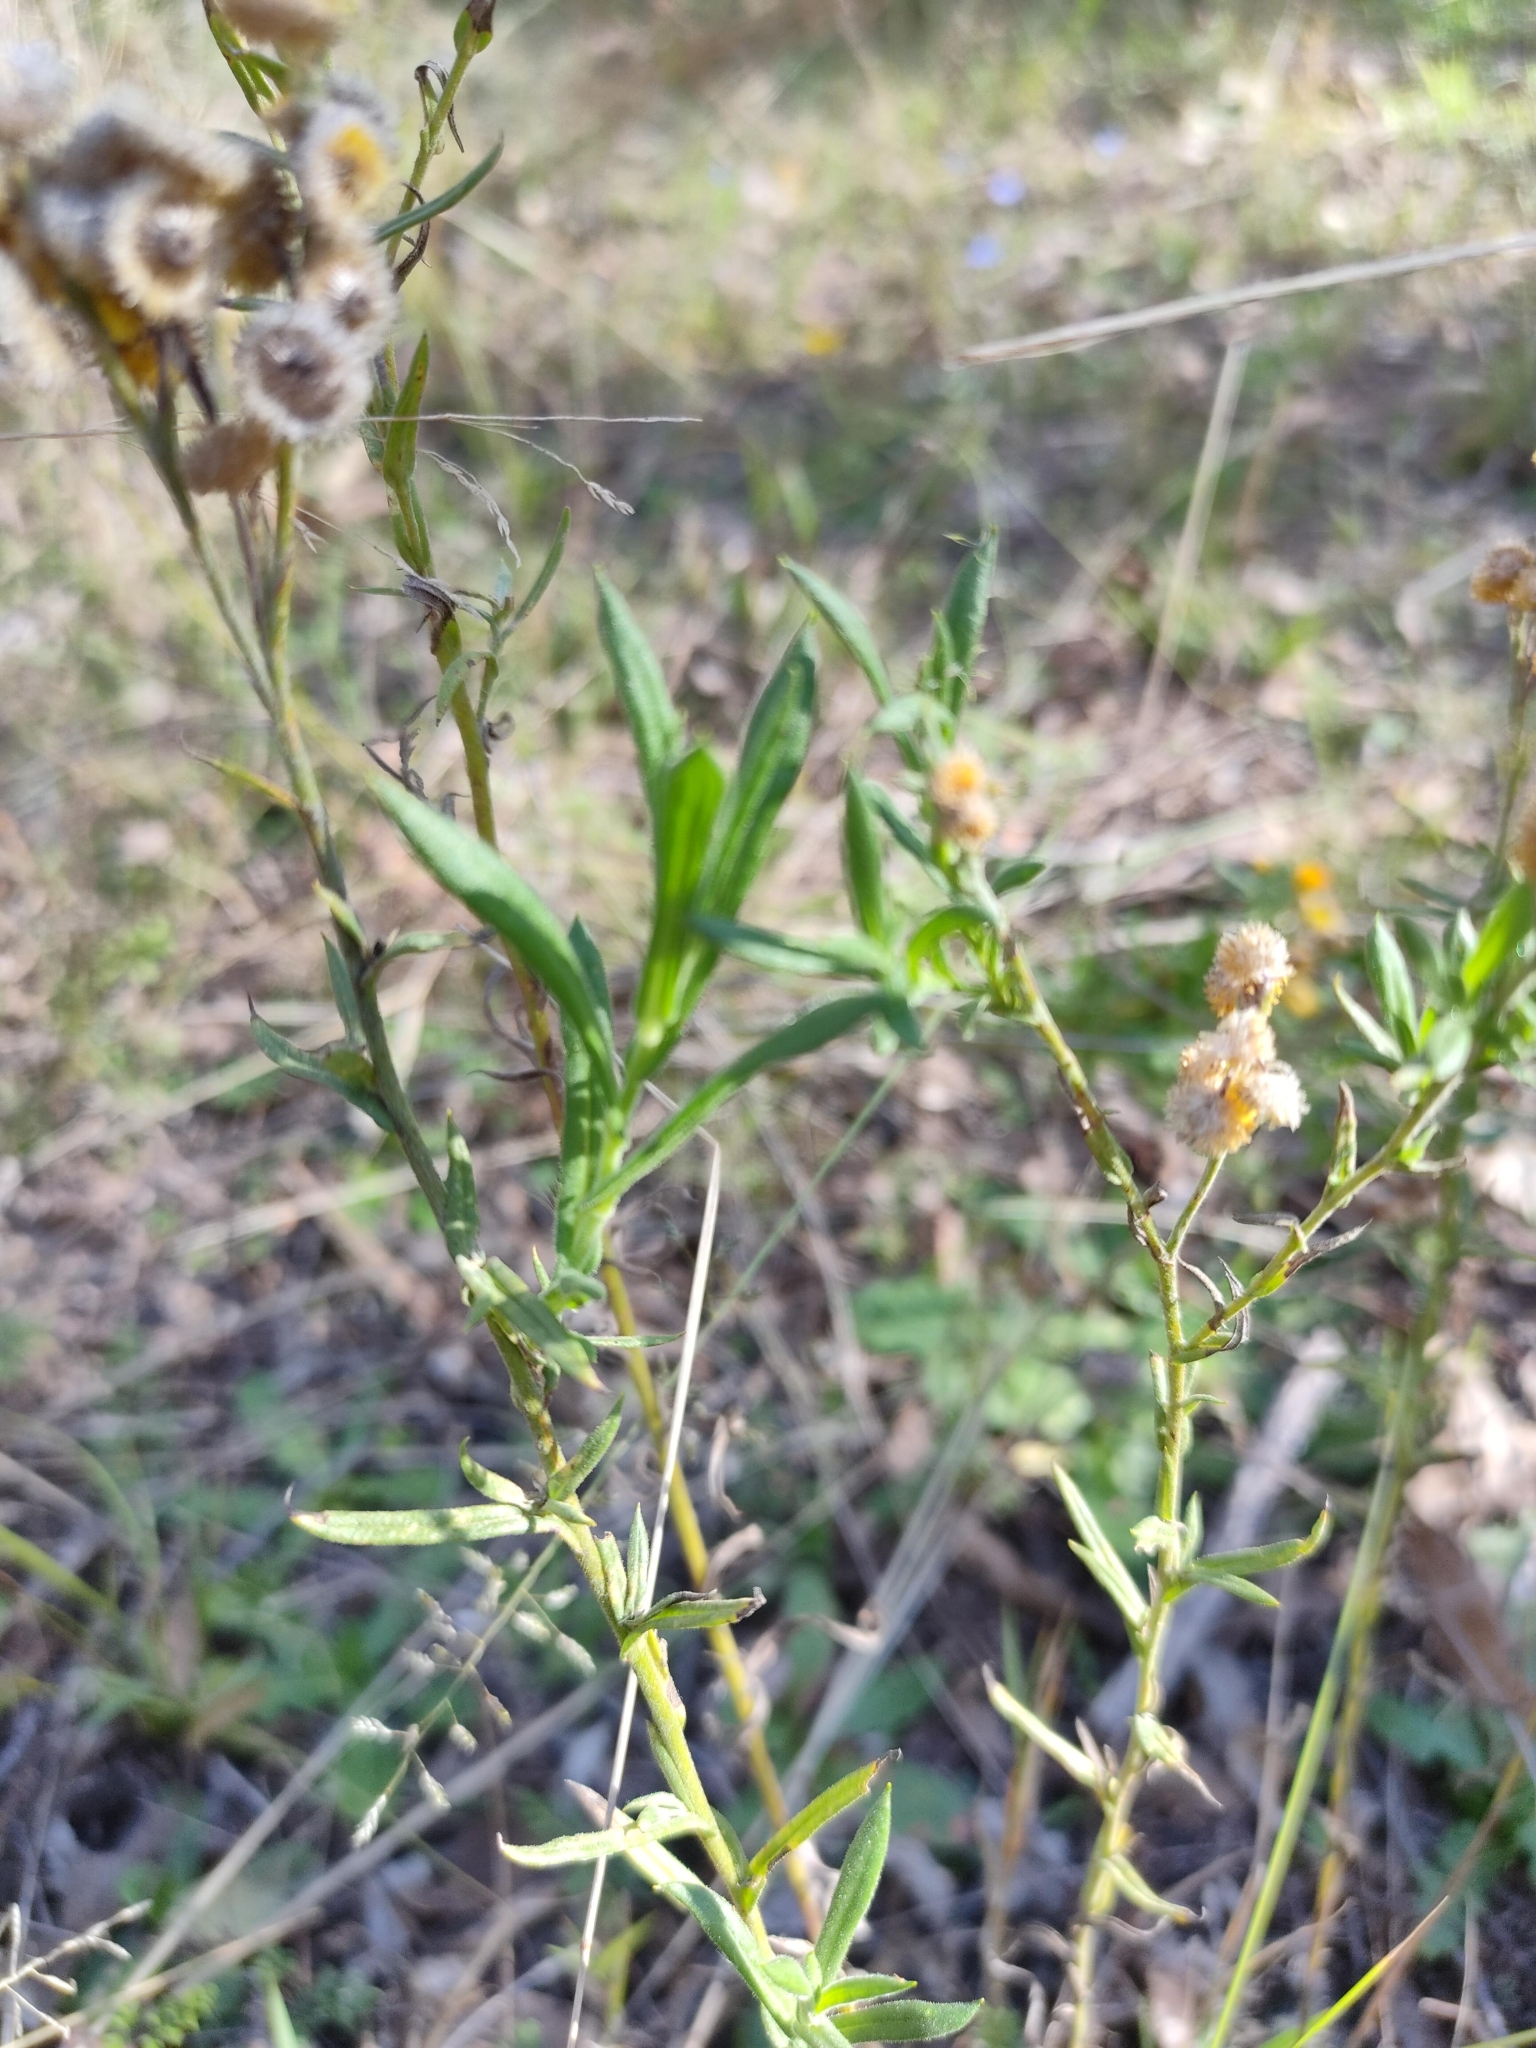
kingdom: Plantae
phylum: Tracheophyta
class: Magnoliopsida
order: Asterales
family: Asteraceae
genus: Chrysocephalum
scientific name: Chrysocephalum apiculatum
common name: Common everlasting
